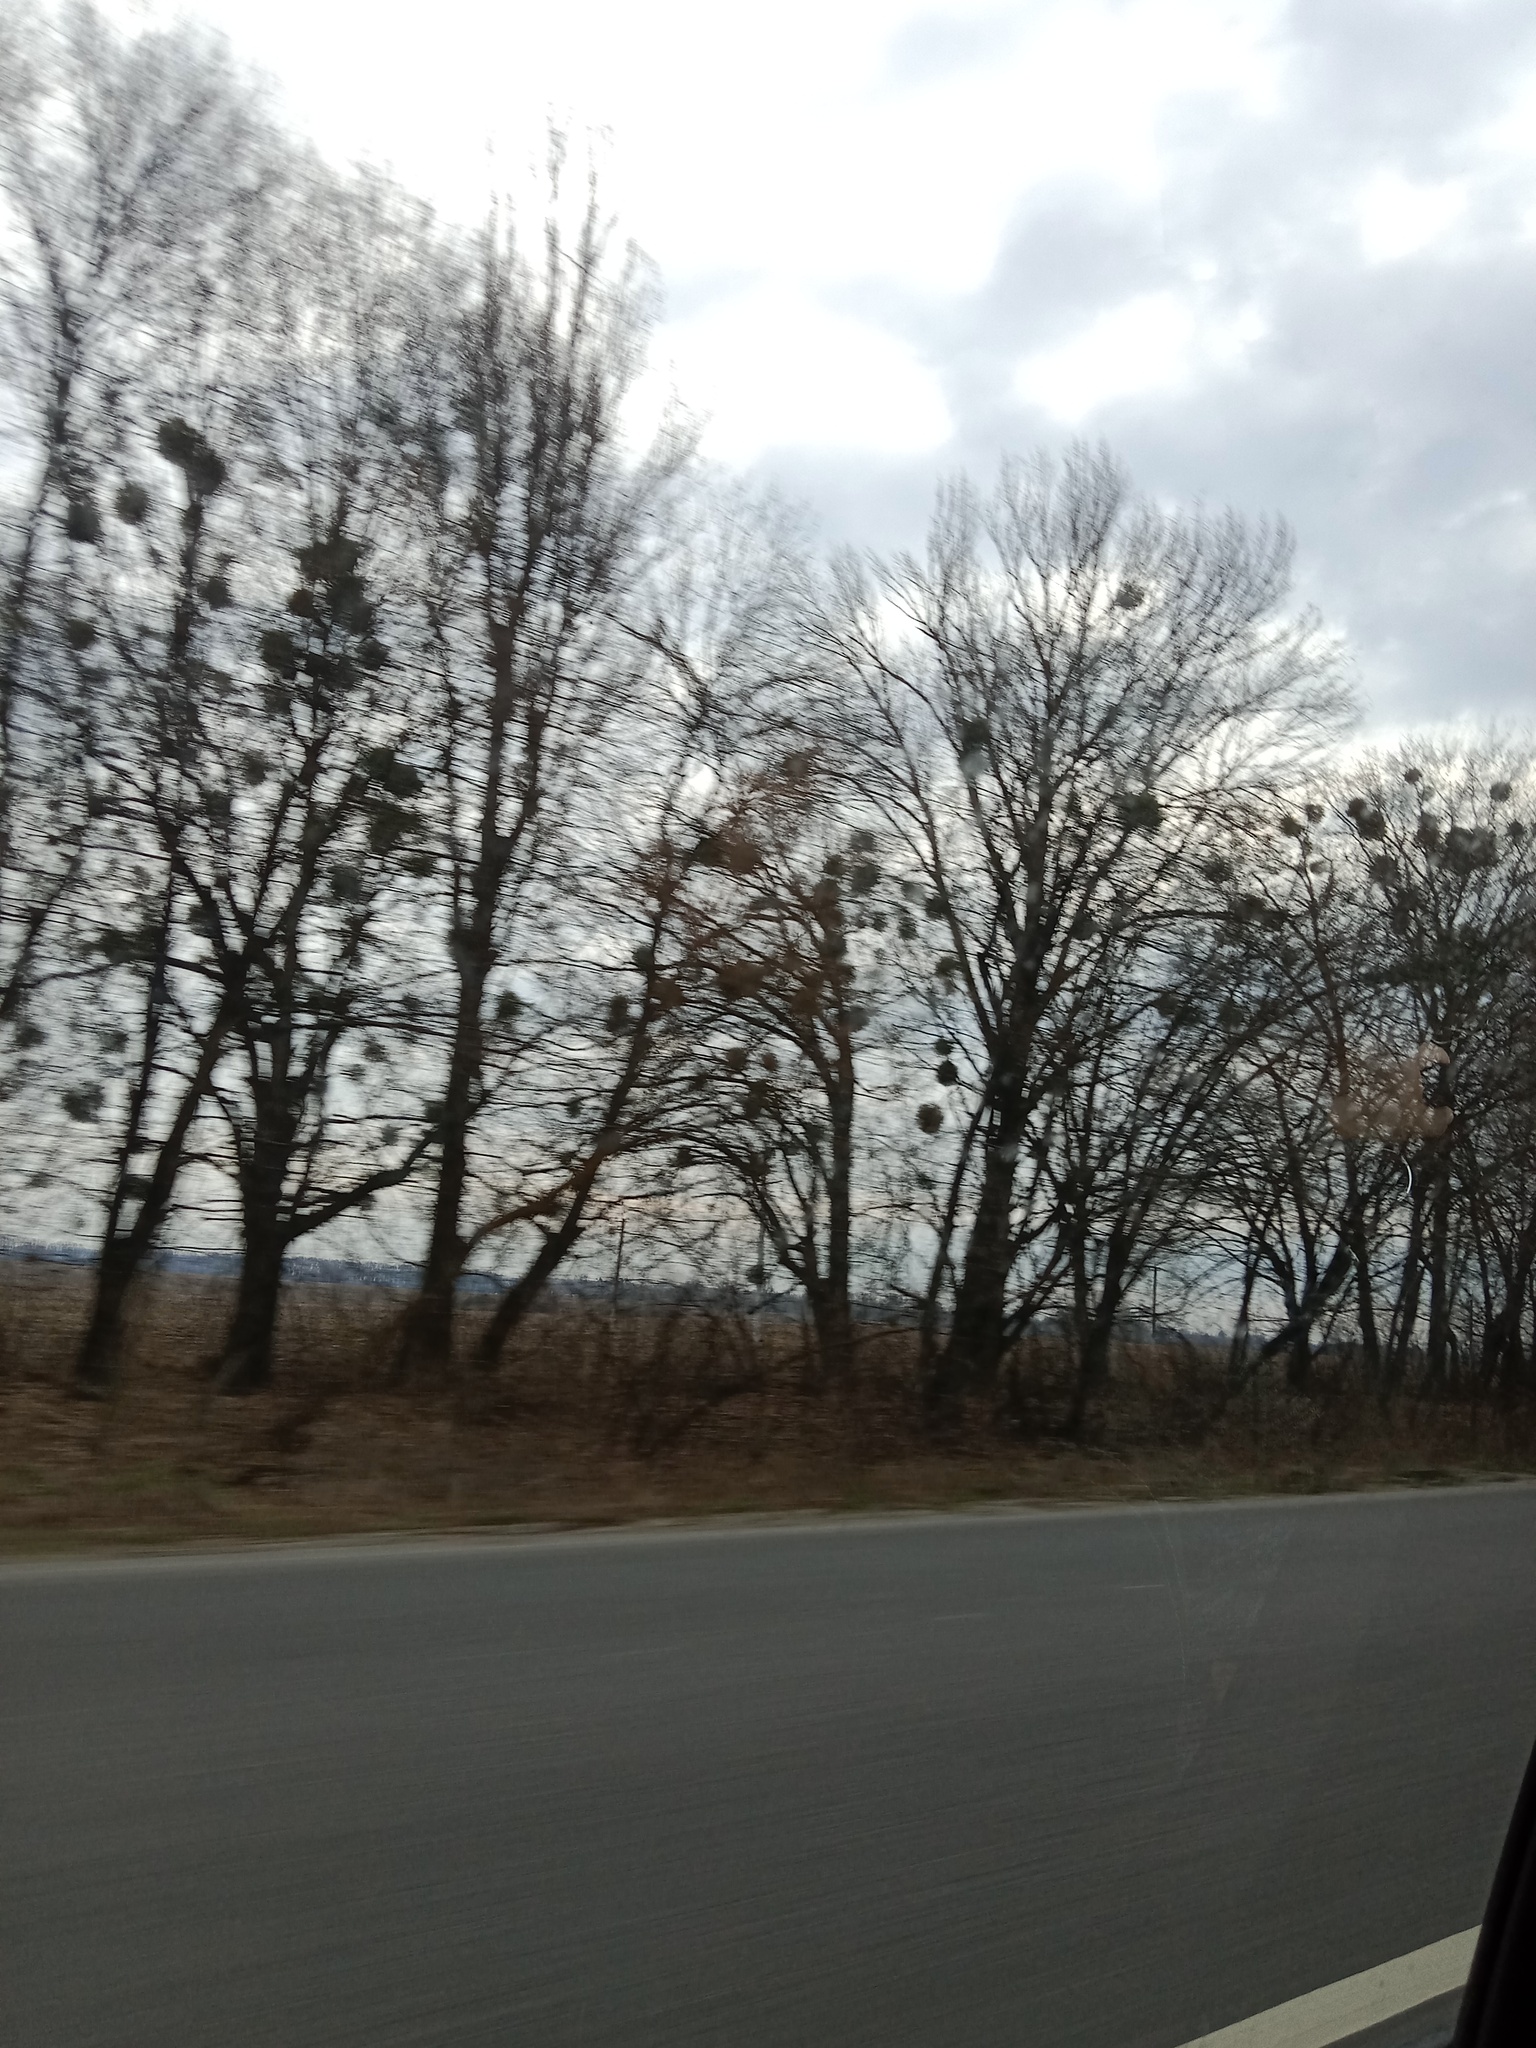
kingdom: Plantae
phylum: Tracheophyta
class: Magnoliopsida
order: Santalales
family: Viscaceae
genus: Viscum
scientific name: Viscum album
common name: Mistletoe
